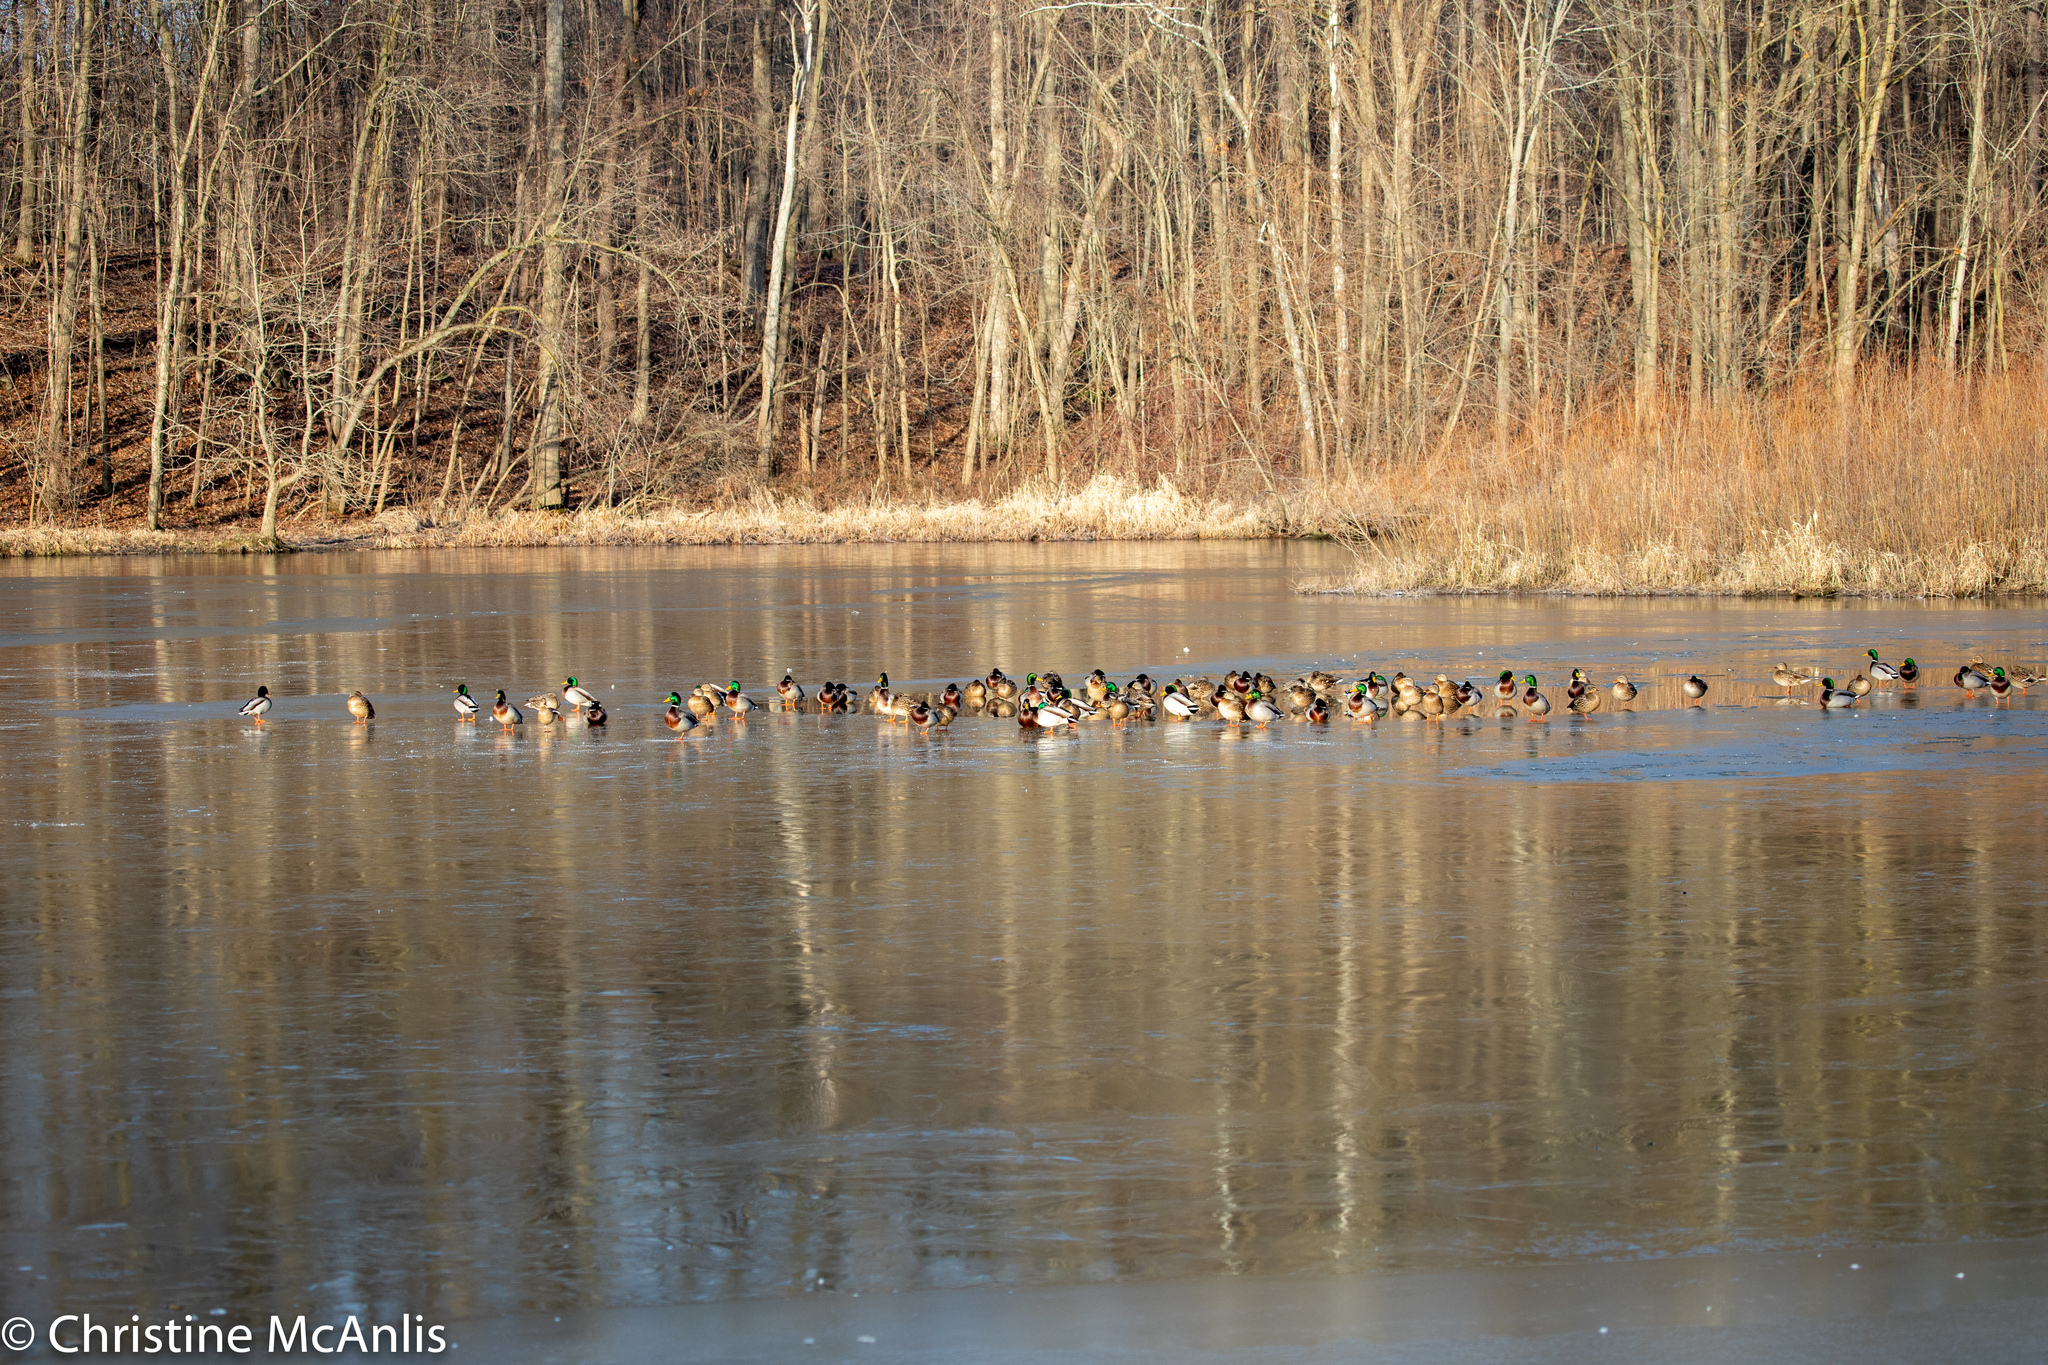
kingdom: Animalia
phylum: Chordata
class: Aves
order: Anseriformes
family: Anatidae
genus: Anas
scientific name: Anas platyrhynchos
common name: Mallard
